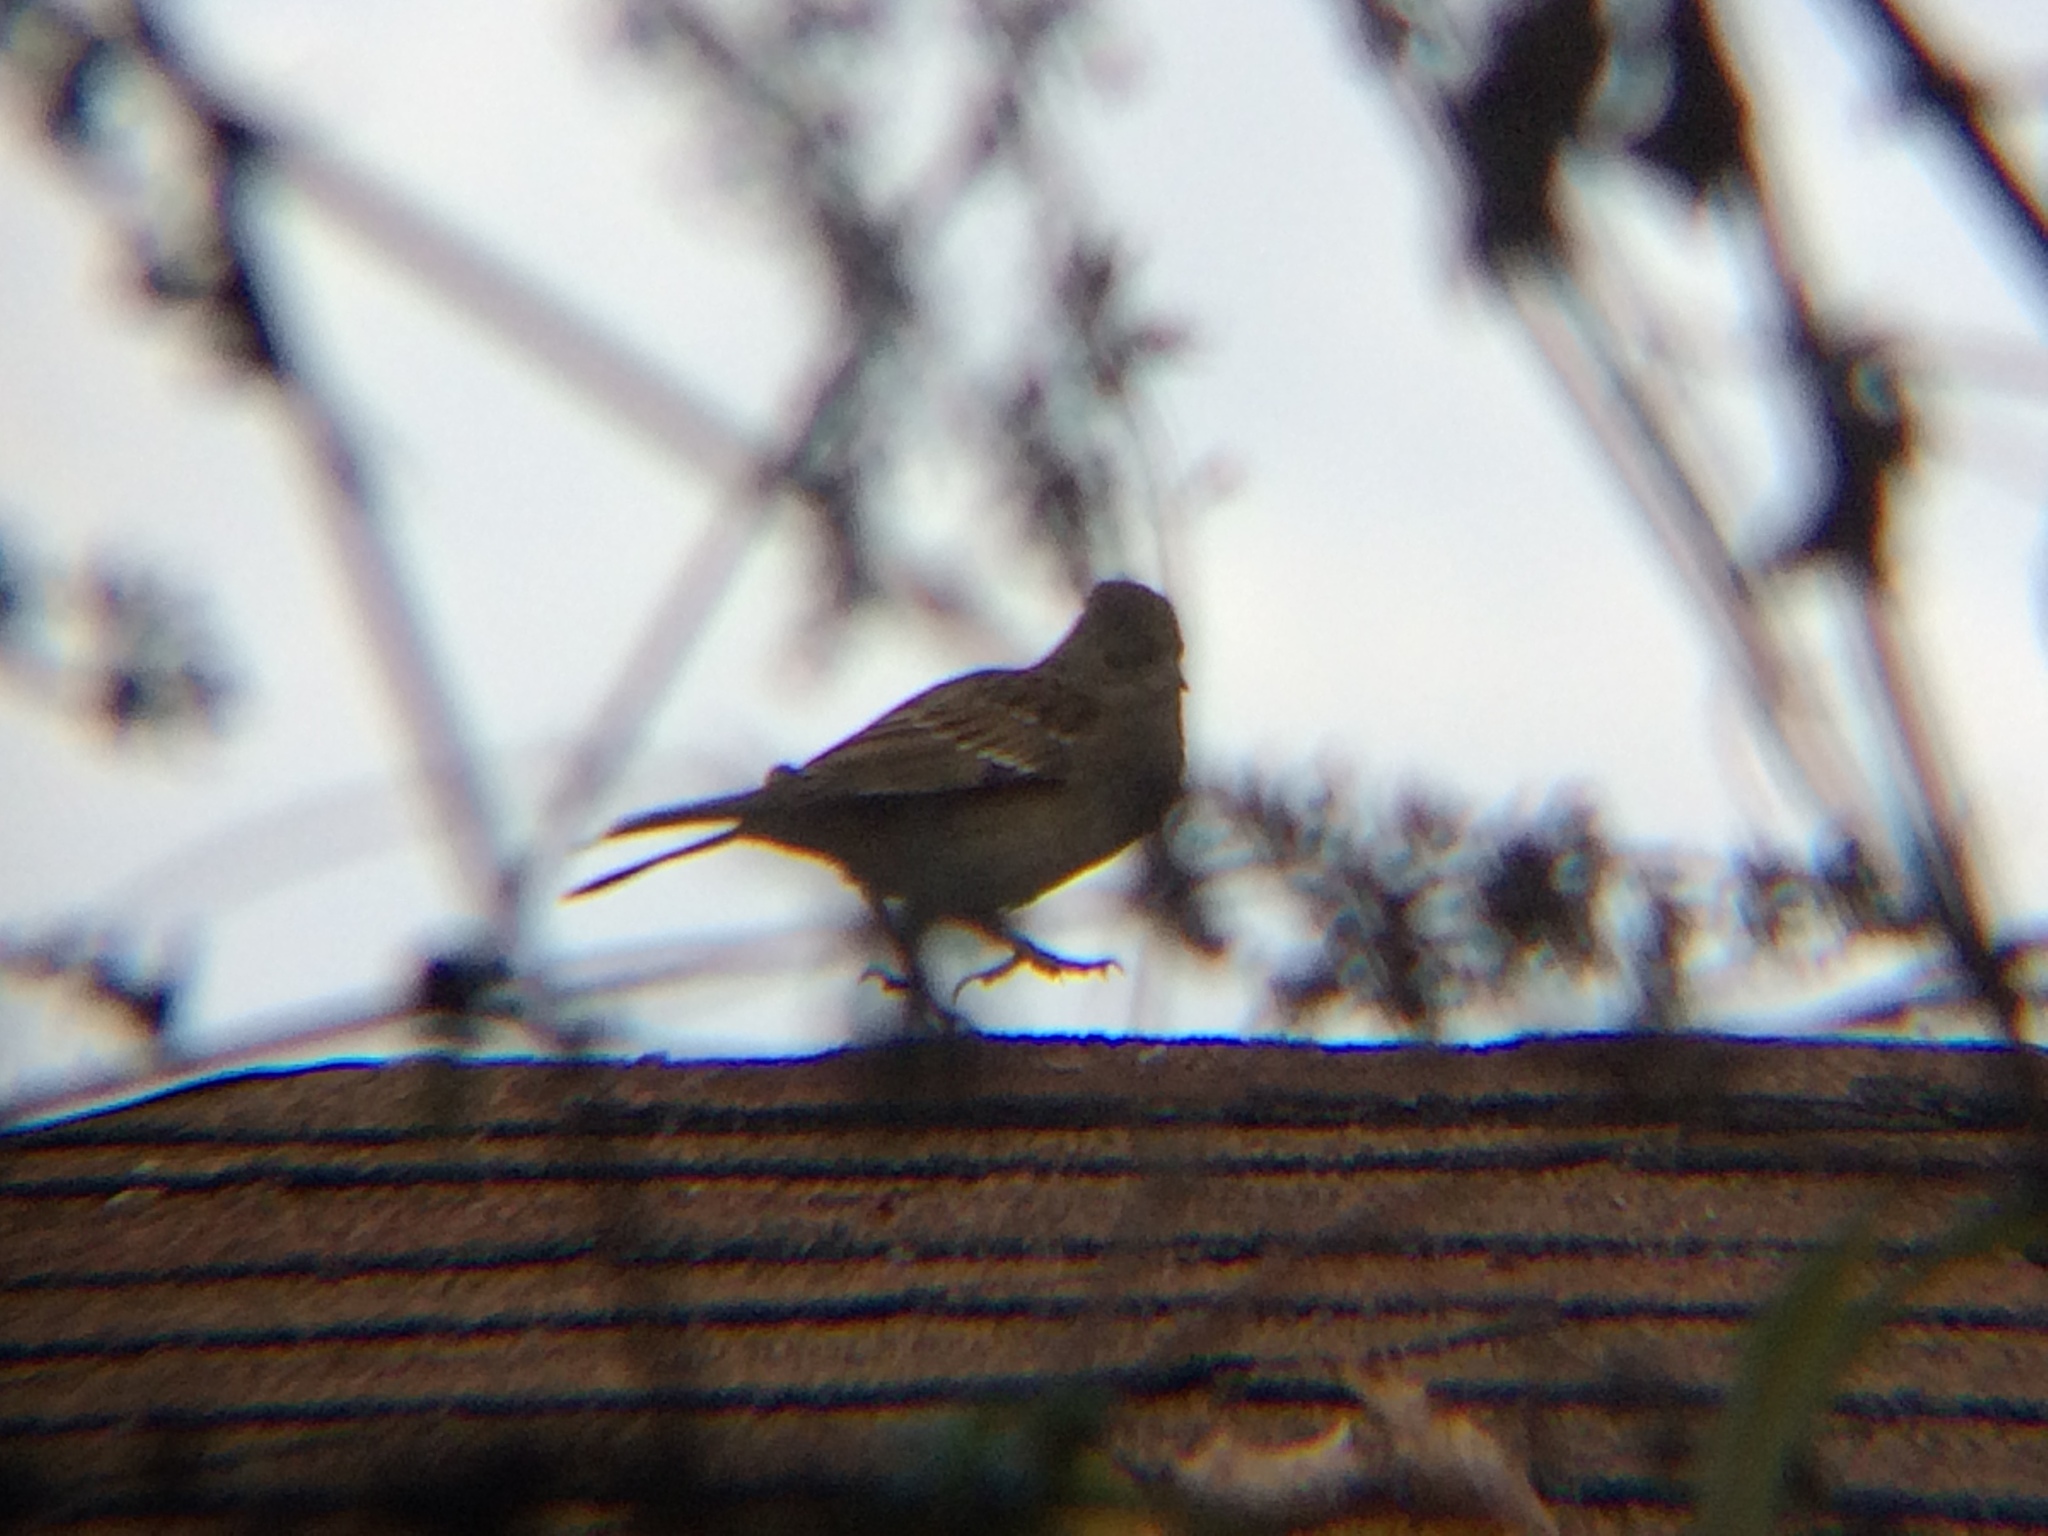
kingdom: Animalia
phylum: Chordata
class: Aves
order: Passeriformes
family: Passerellidae
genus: Zonotrichia
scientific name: Zonotrichia atricapilla
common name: Golden-crowned sparrow
